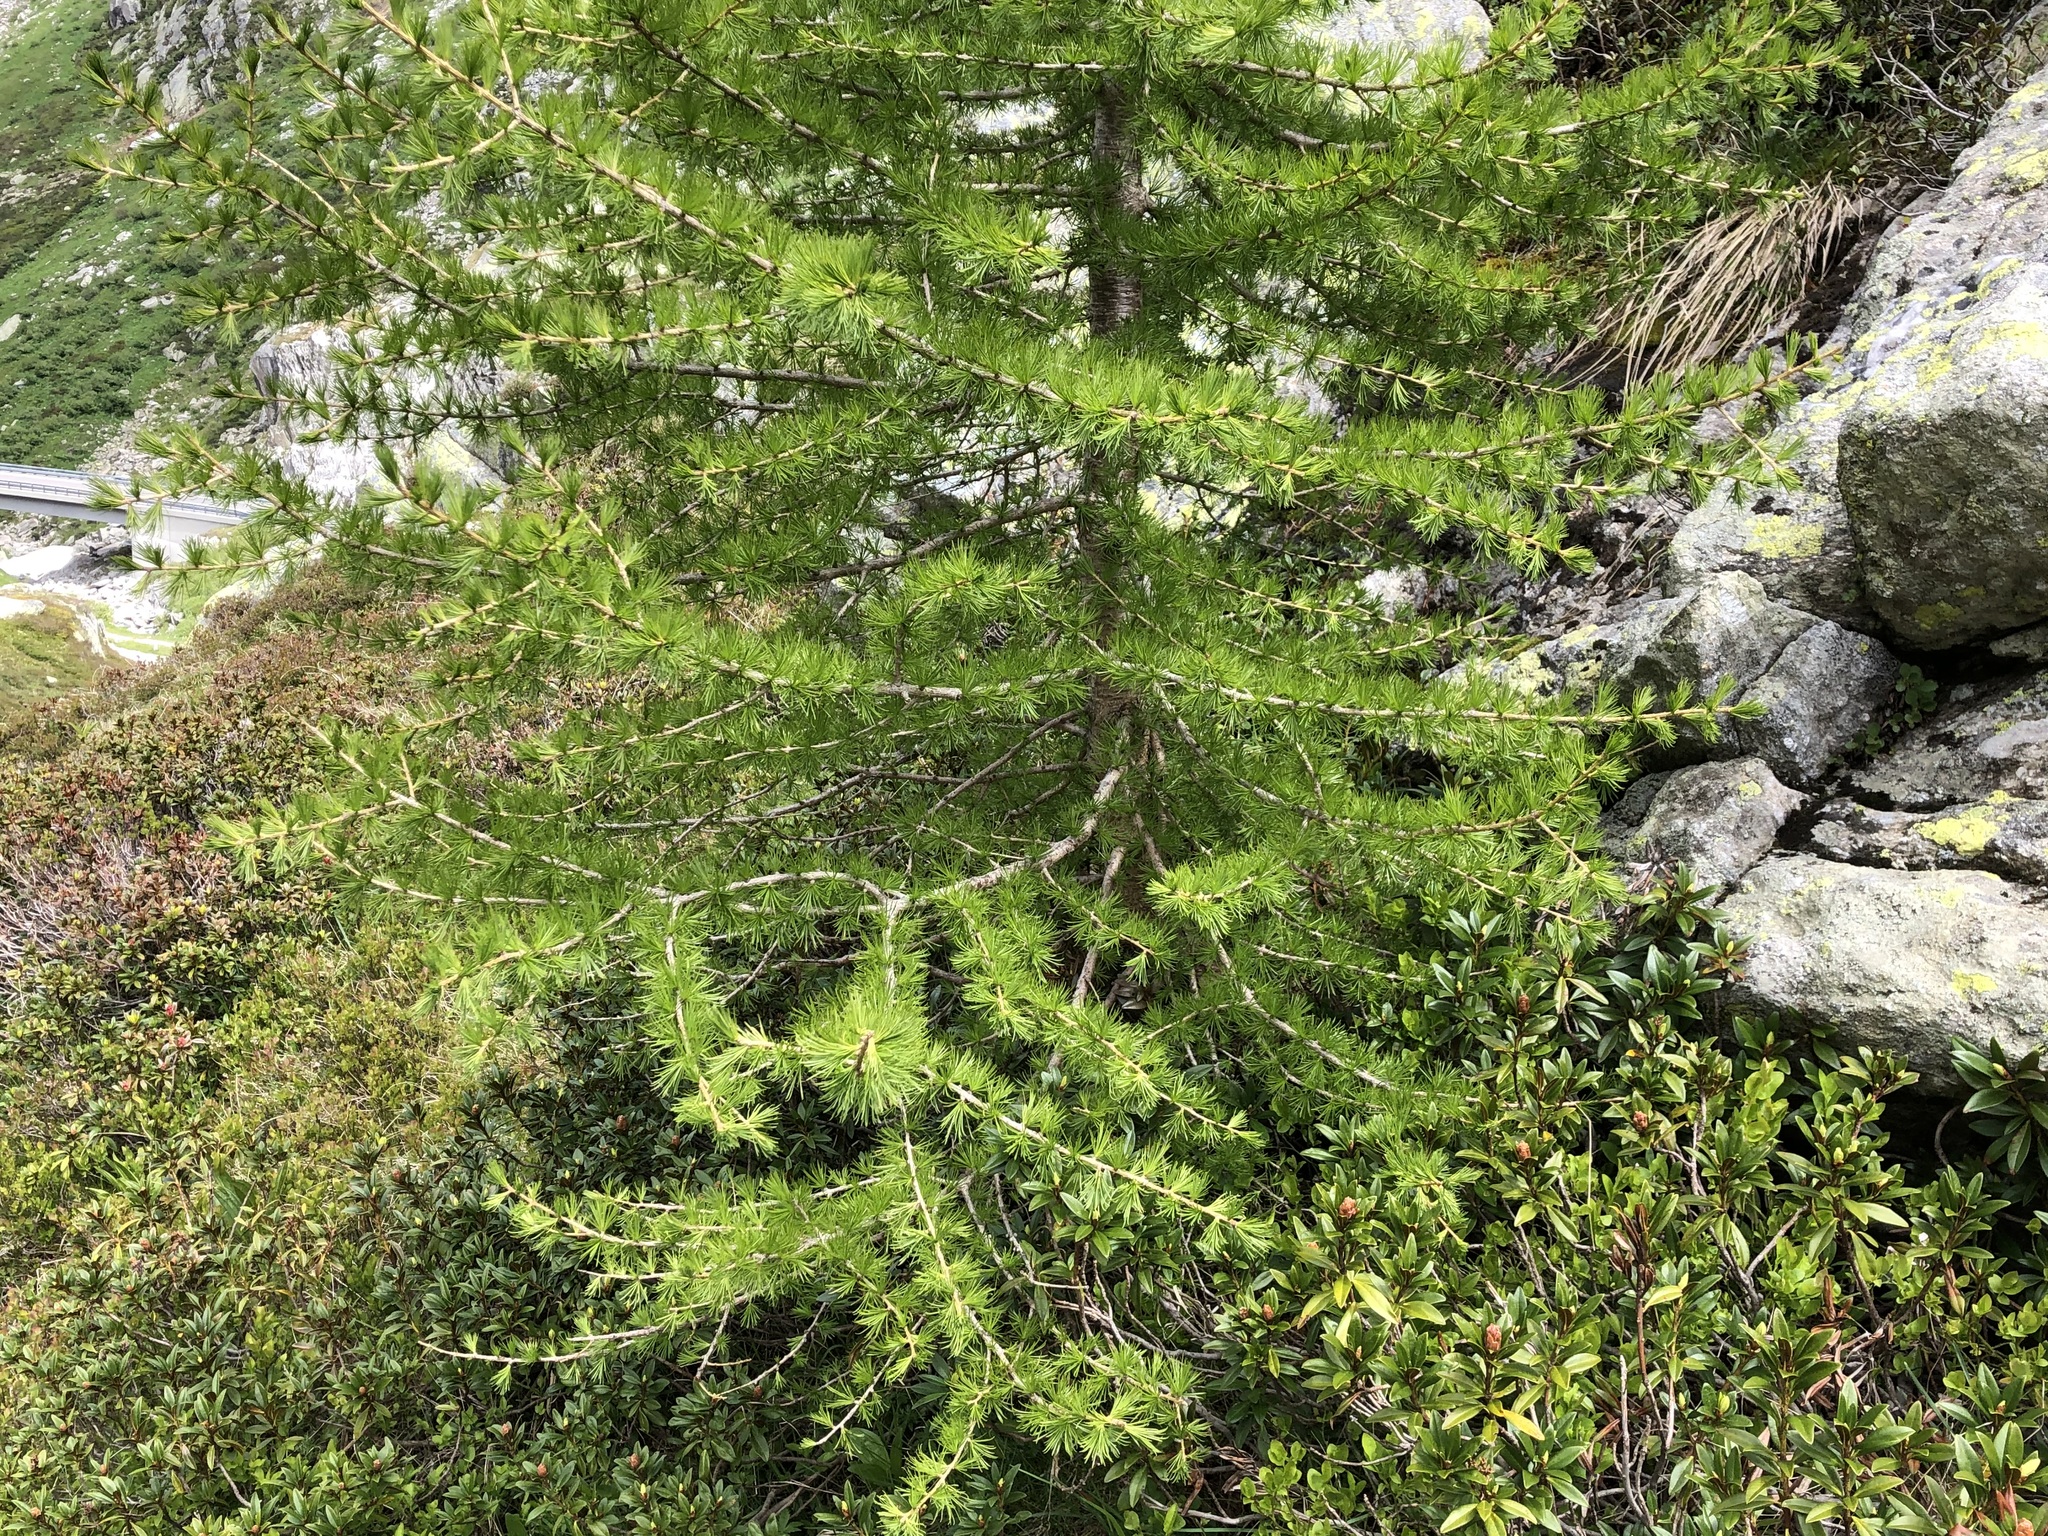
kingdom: Plantae
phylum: Tracheophyta
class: Pinopsida
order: Pinales
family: Pinaceae
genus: Larix
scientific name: Larix decidua
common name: European larch
